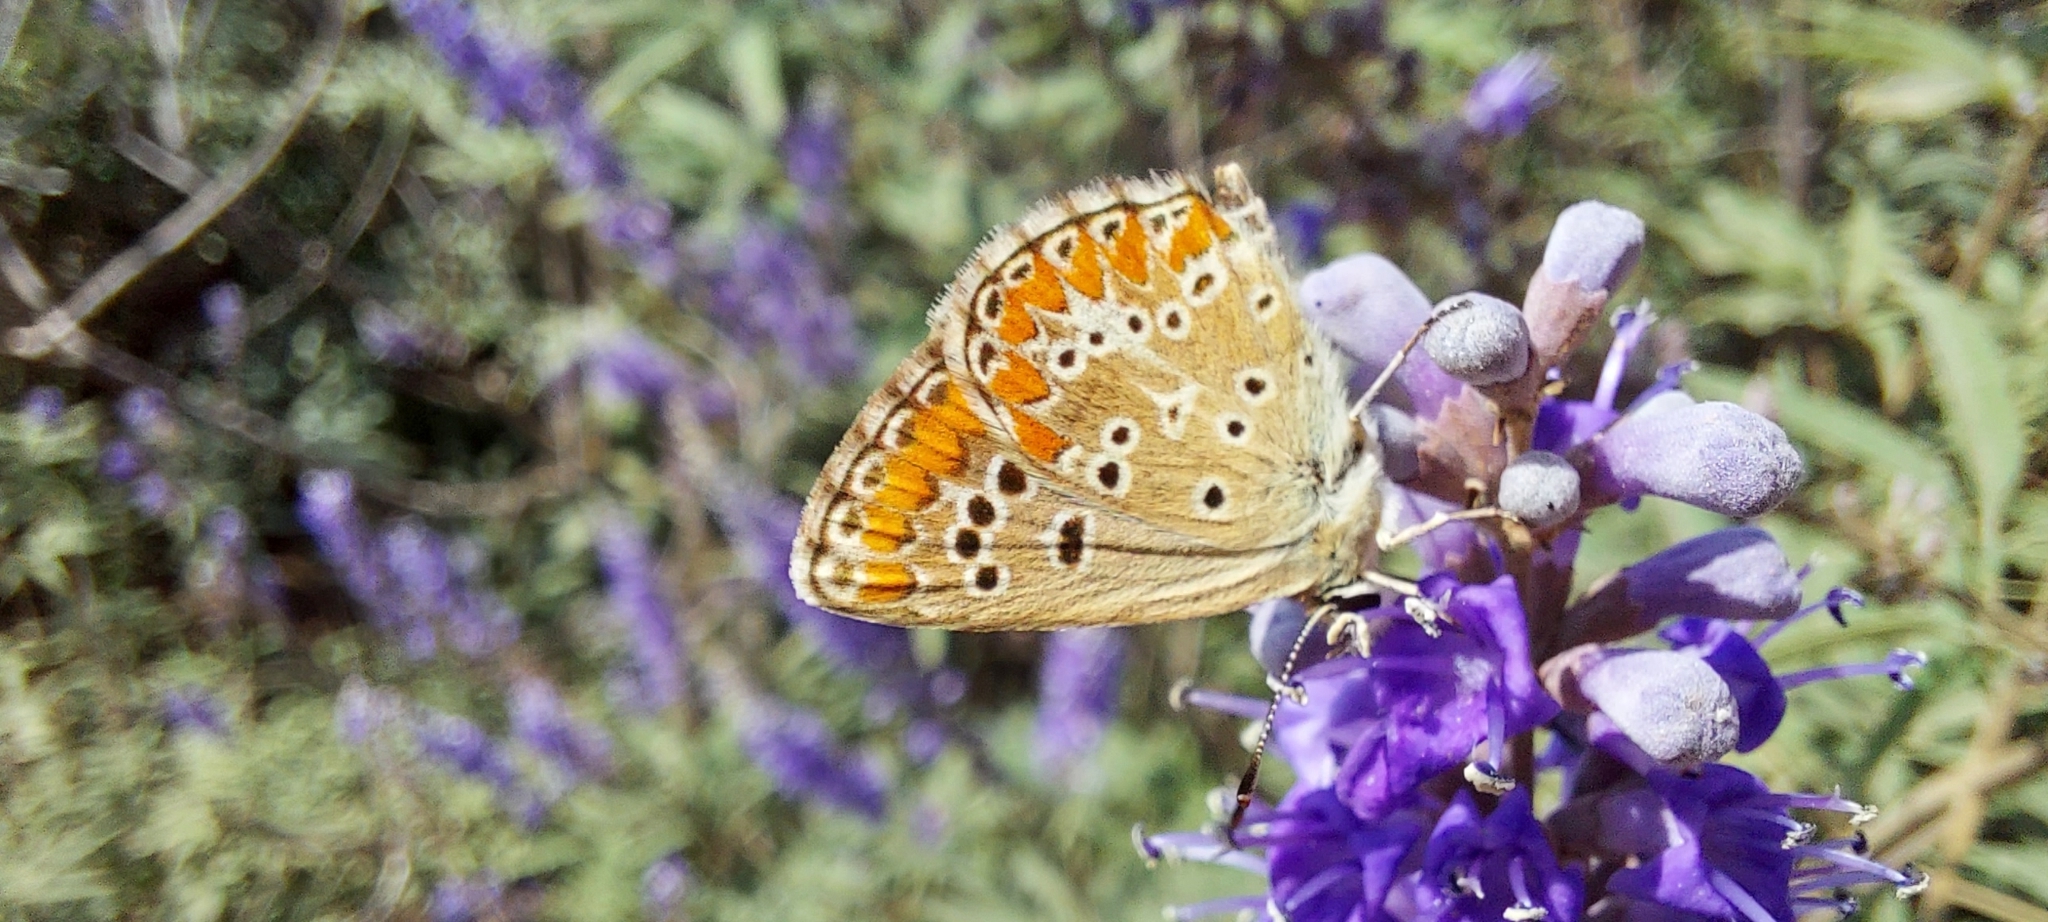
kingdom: Animalia
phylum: Arthropoda
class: Insecta
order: Lepidoptera
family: Lycaenidae
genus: Aricia
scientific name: Aricia cramera
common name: Eschscholtz´s brown  argus
